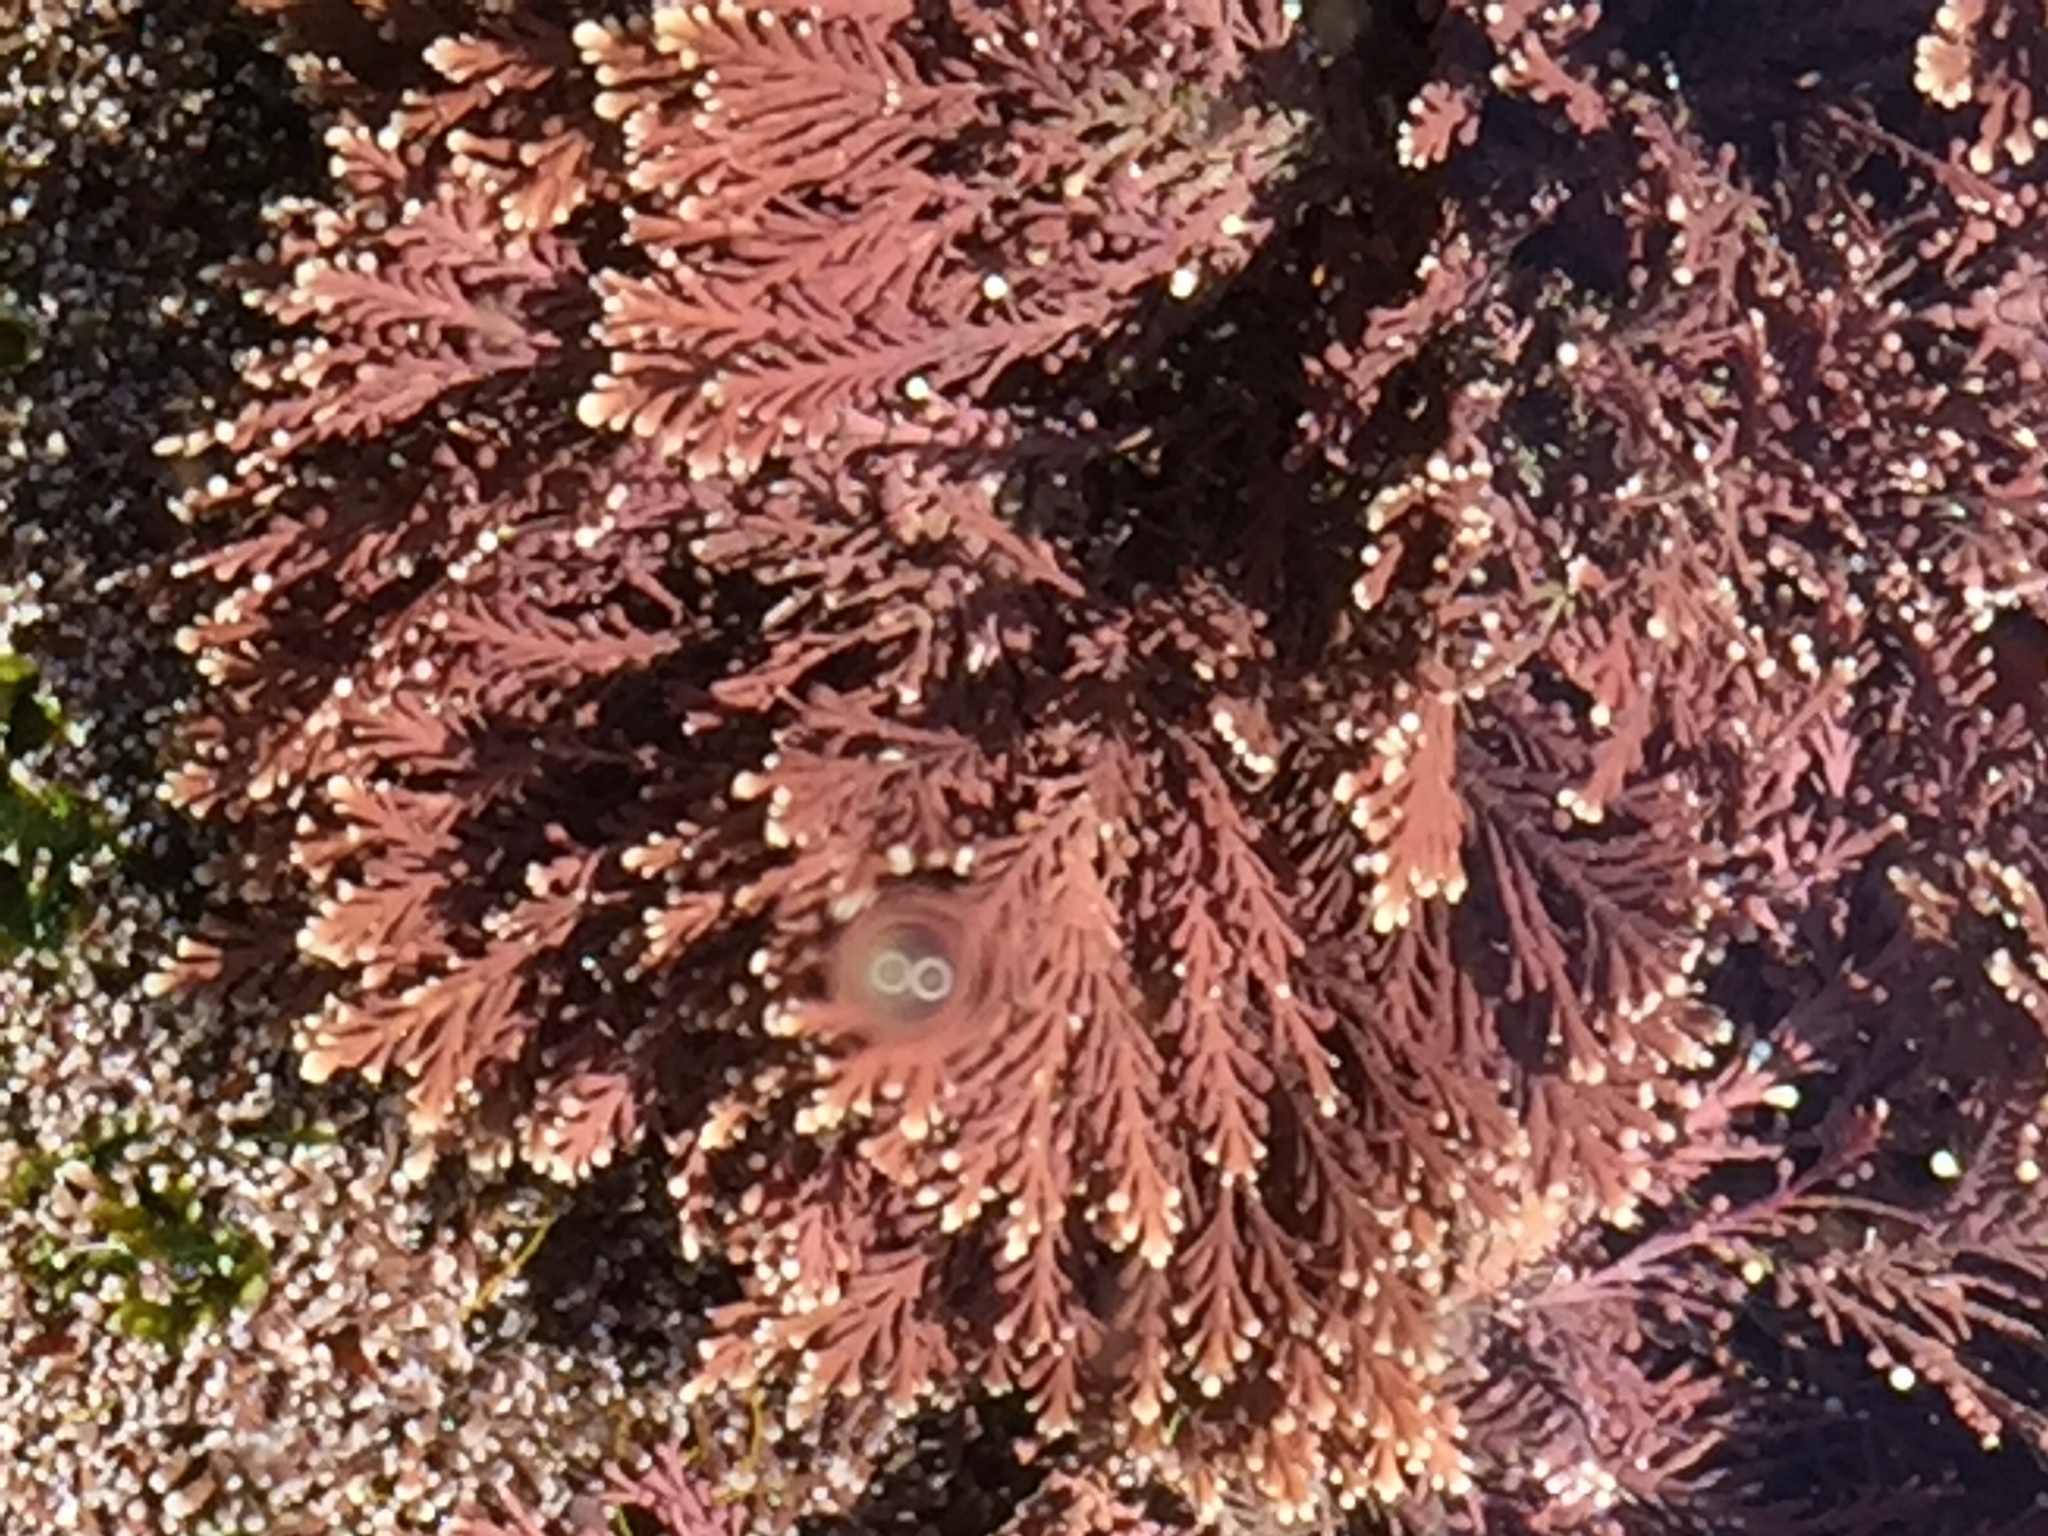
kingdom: Plantae
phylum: Rhodophyta
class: Florideophyceae
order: Corallinales
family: Corallinaceae
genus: Corallina
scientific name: Corallina
